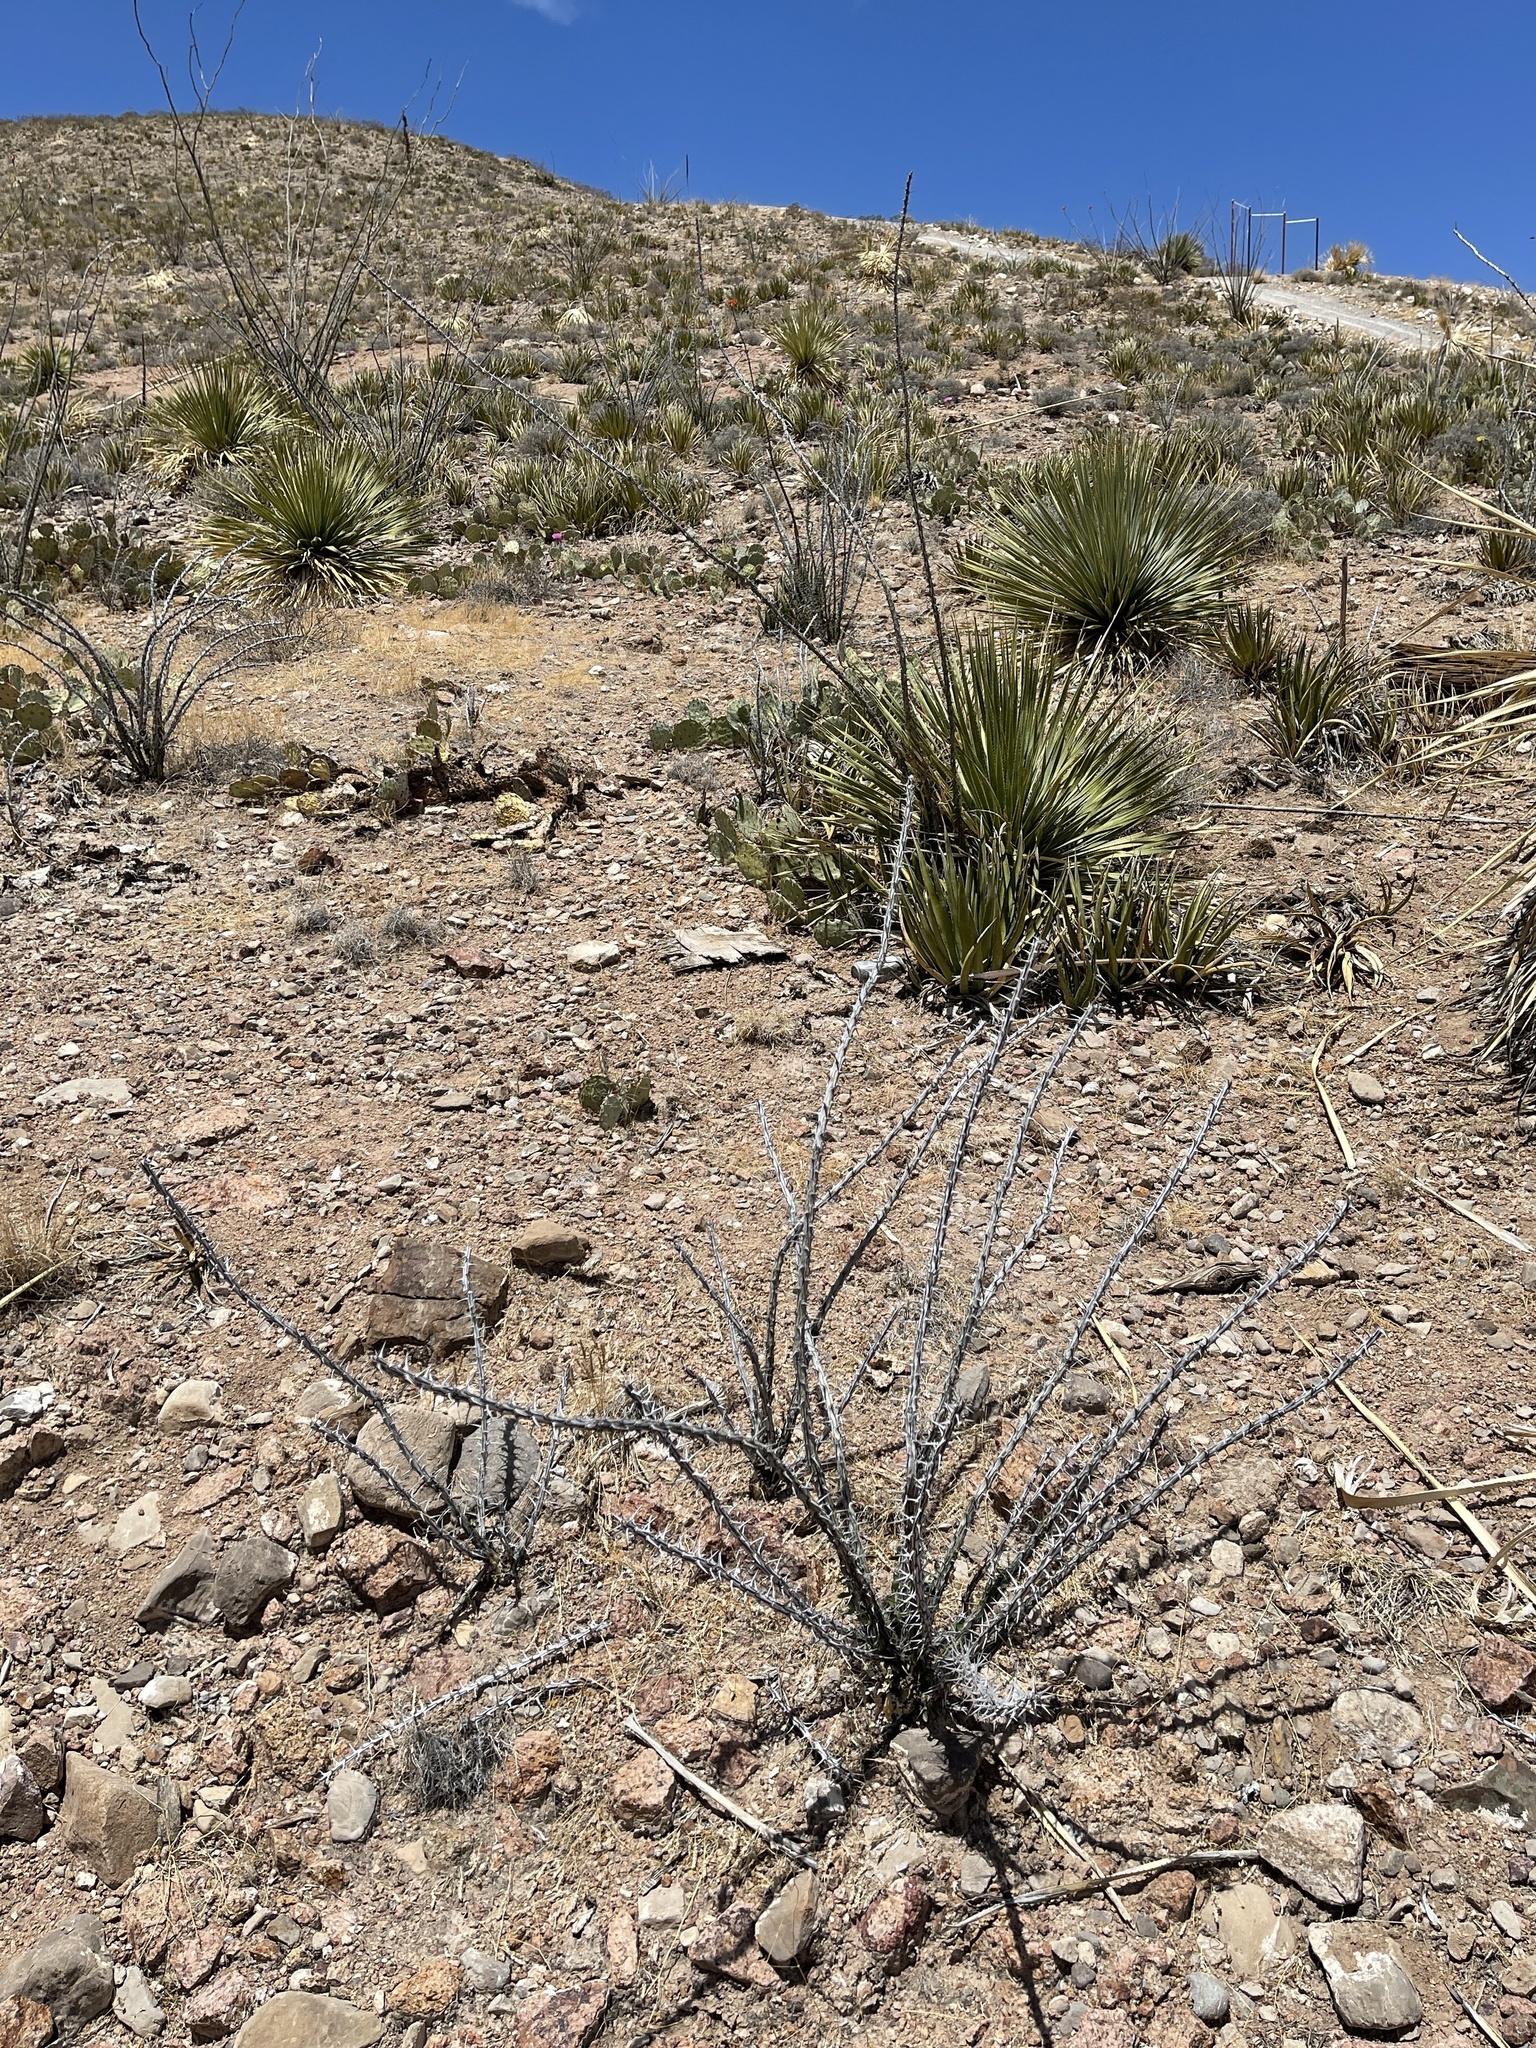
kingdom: Plantae
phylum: Tracheophyta
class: Magnoliopsida
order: Ericales
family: Fouquieriaceae
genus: Fouquieria
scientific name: Fouquieria splendens
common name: Vine-cactus
